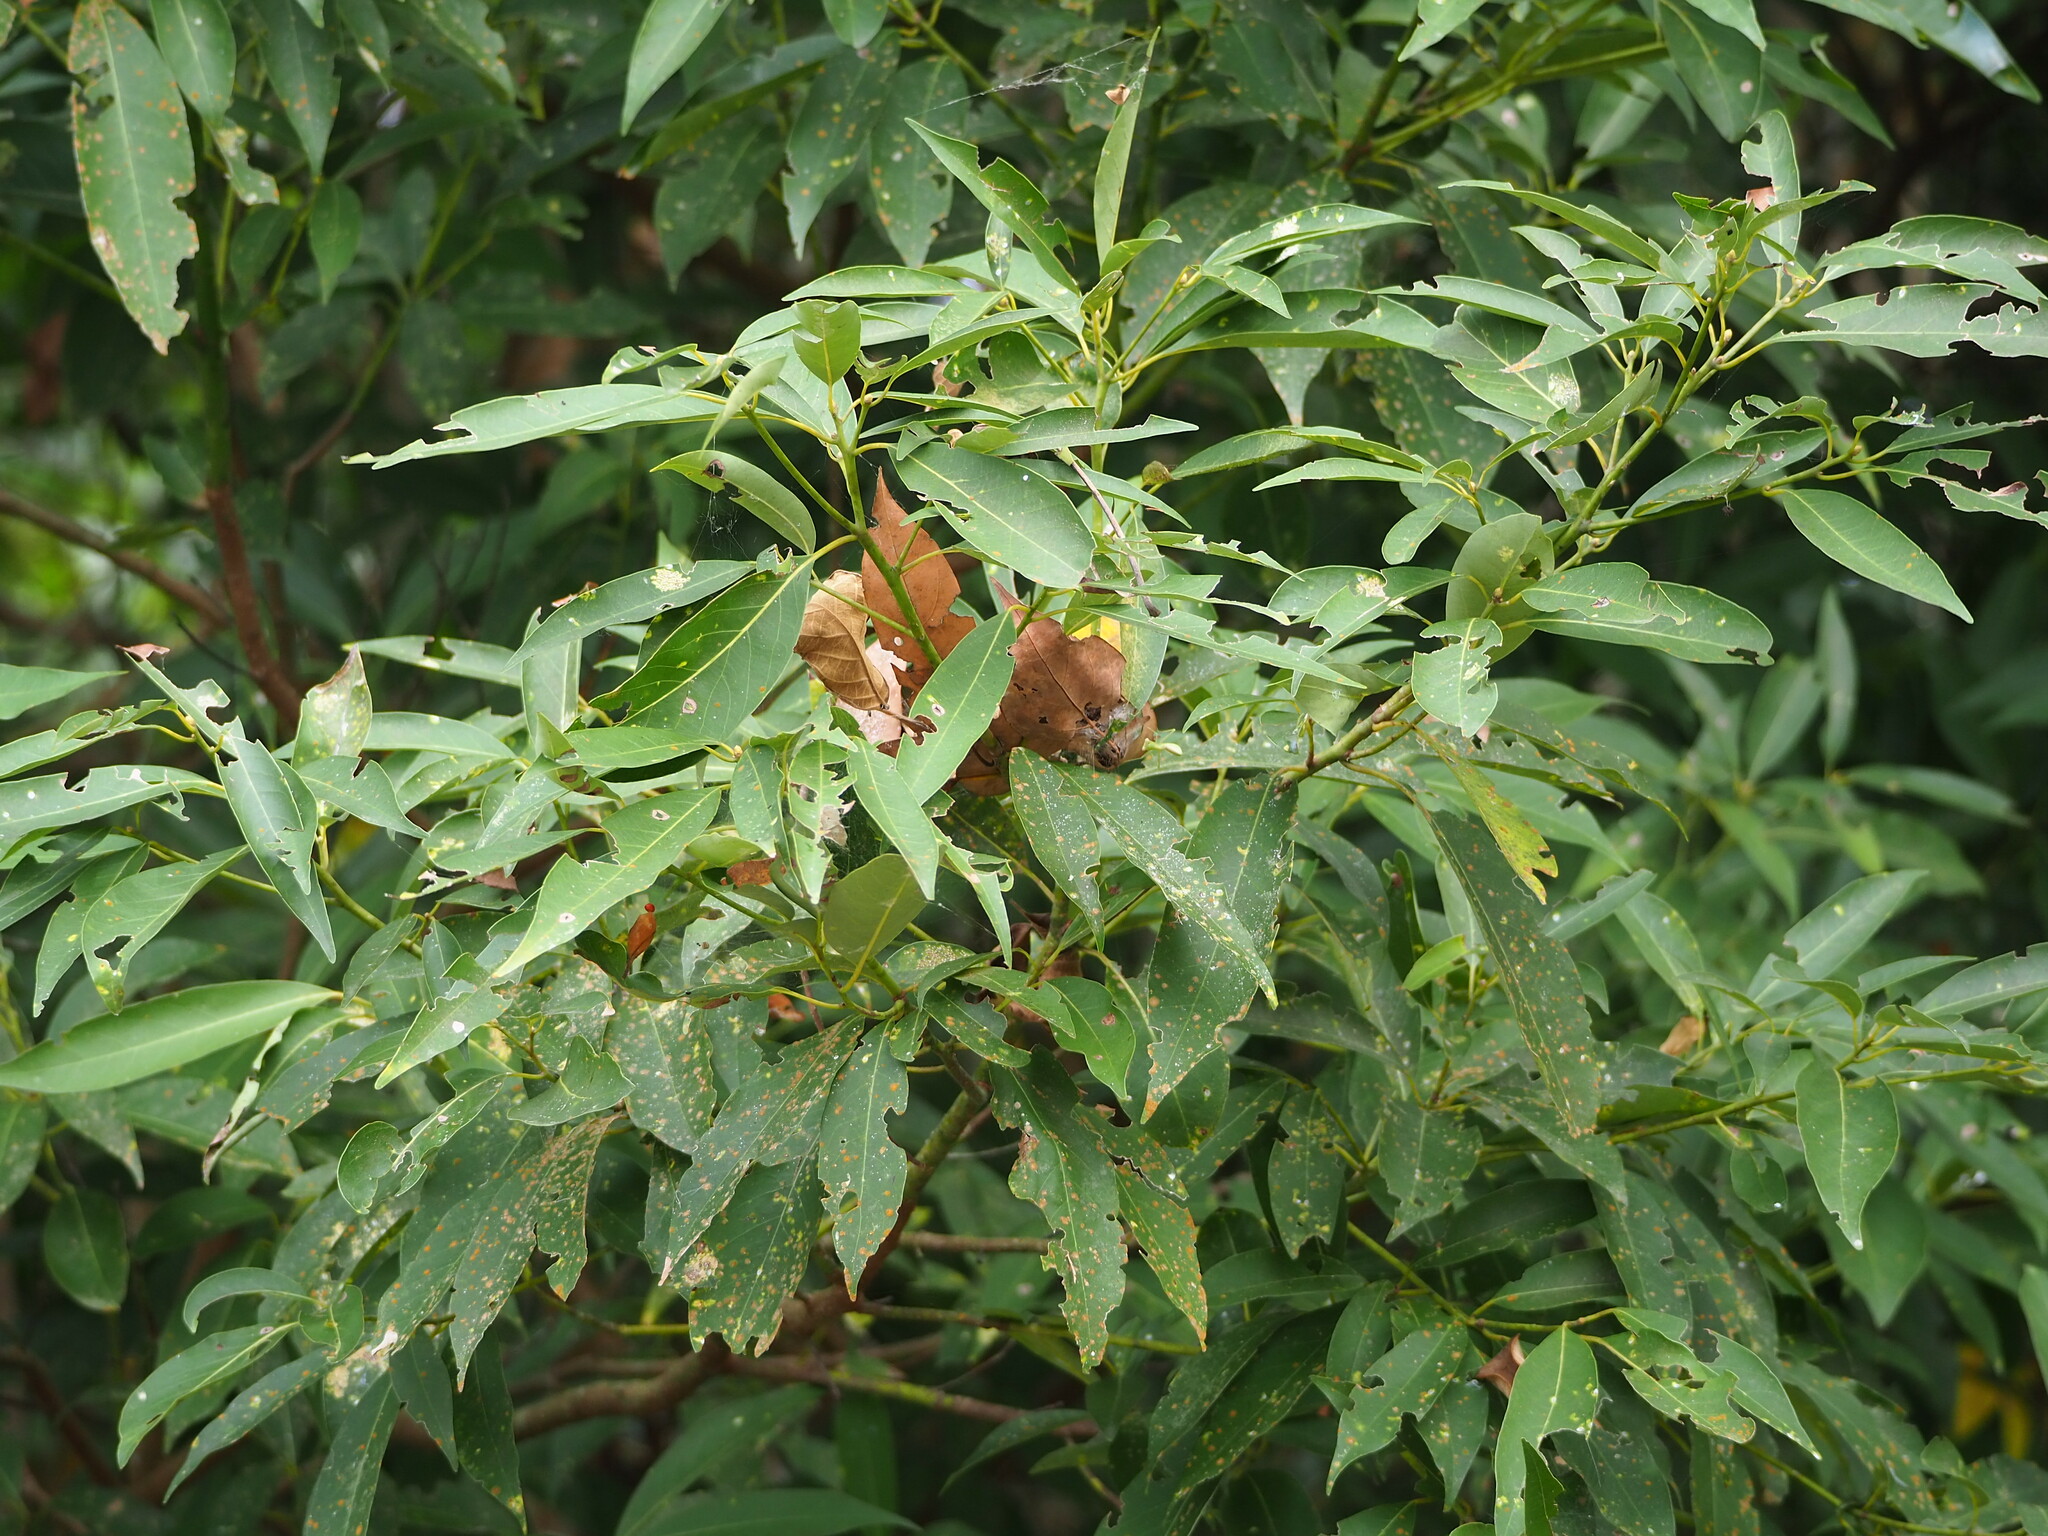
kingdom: Plantae
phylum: Tracheophyta
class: Magnoliopsida
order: Laurales
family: Lauraceae
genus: Machilus
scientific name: Machilus zuihoensis
